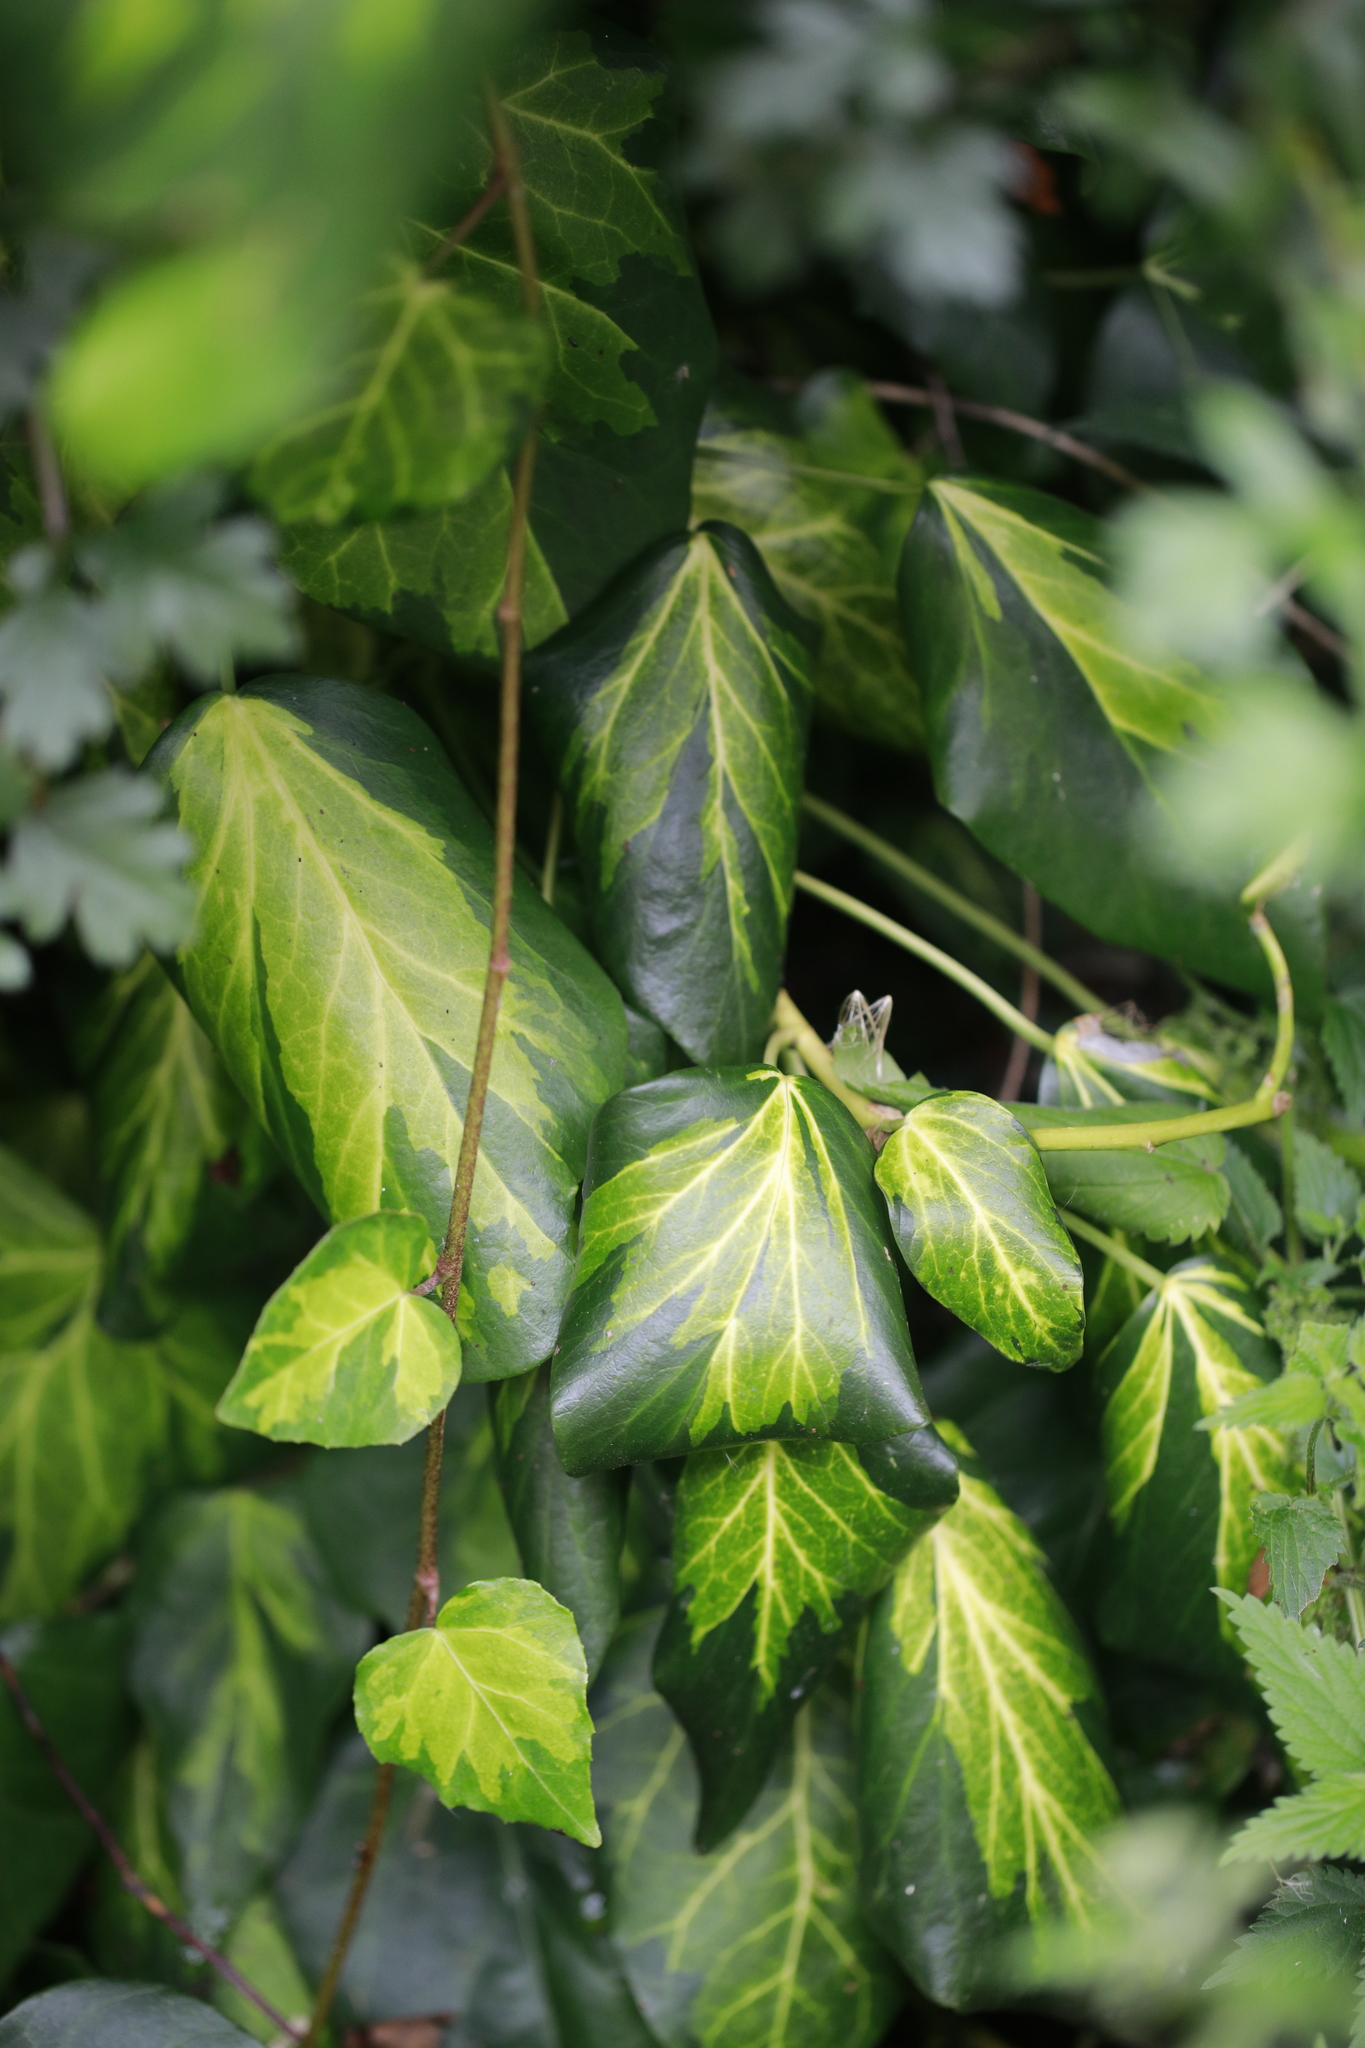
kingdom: Plantae
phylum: Tracheophyta
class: Magnoliopsida
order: Apiales
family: Araliaceae
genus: Hedera
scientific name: Hedera colchica
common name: Persian ivy
